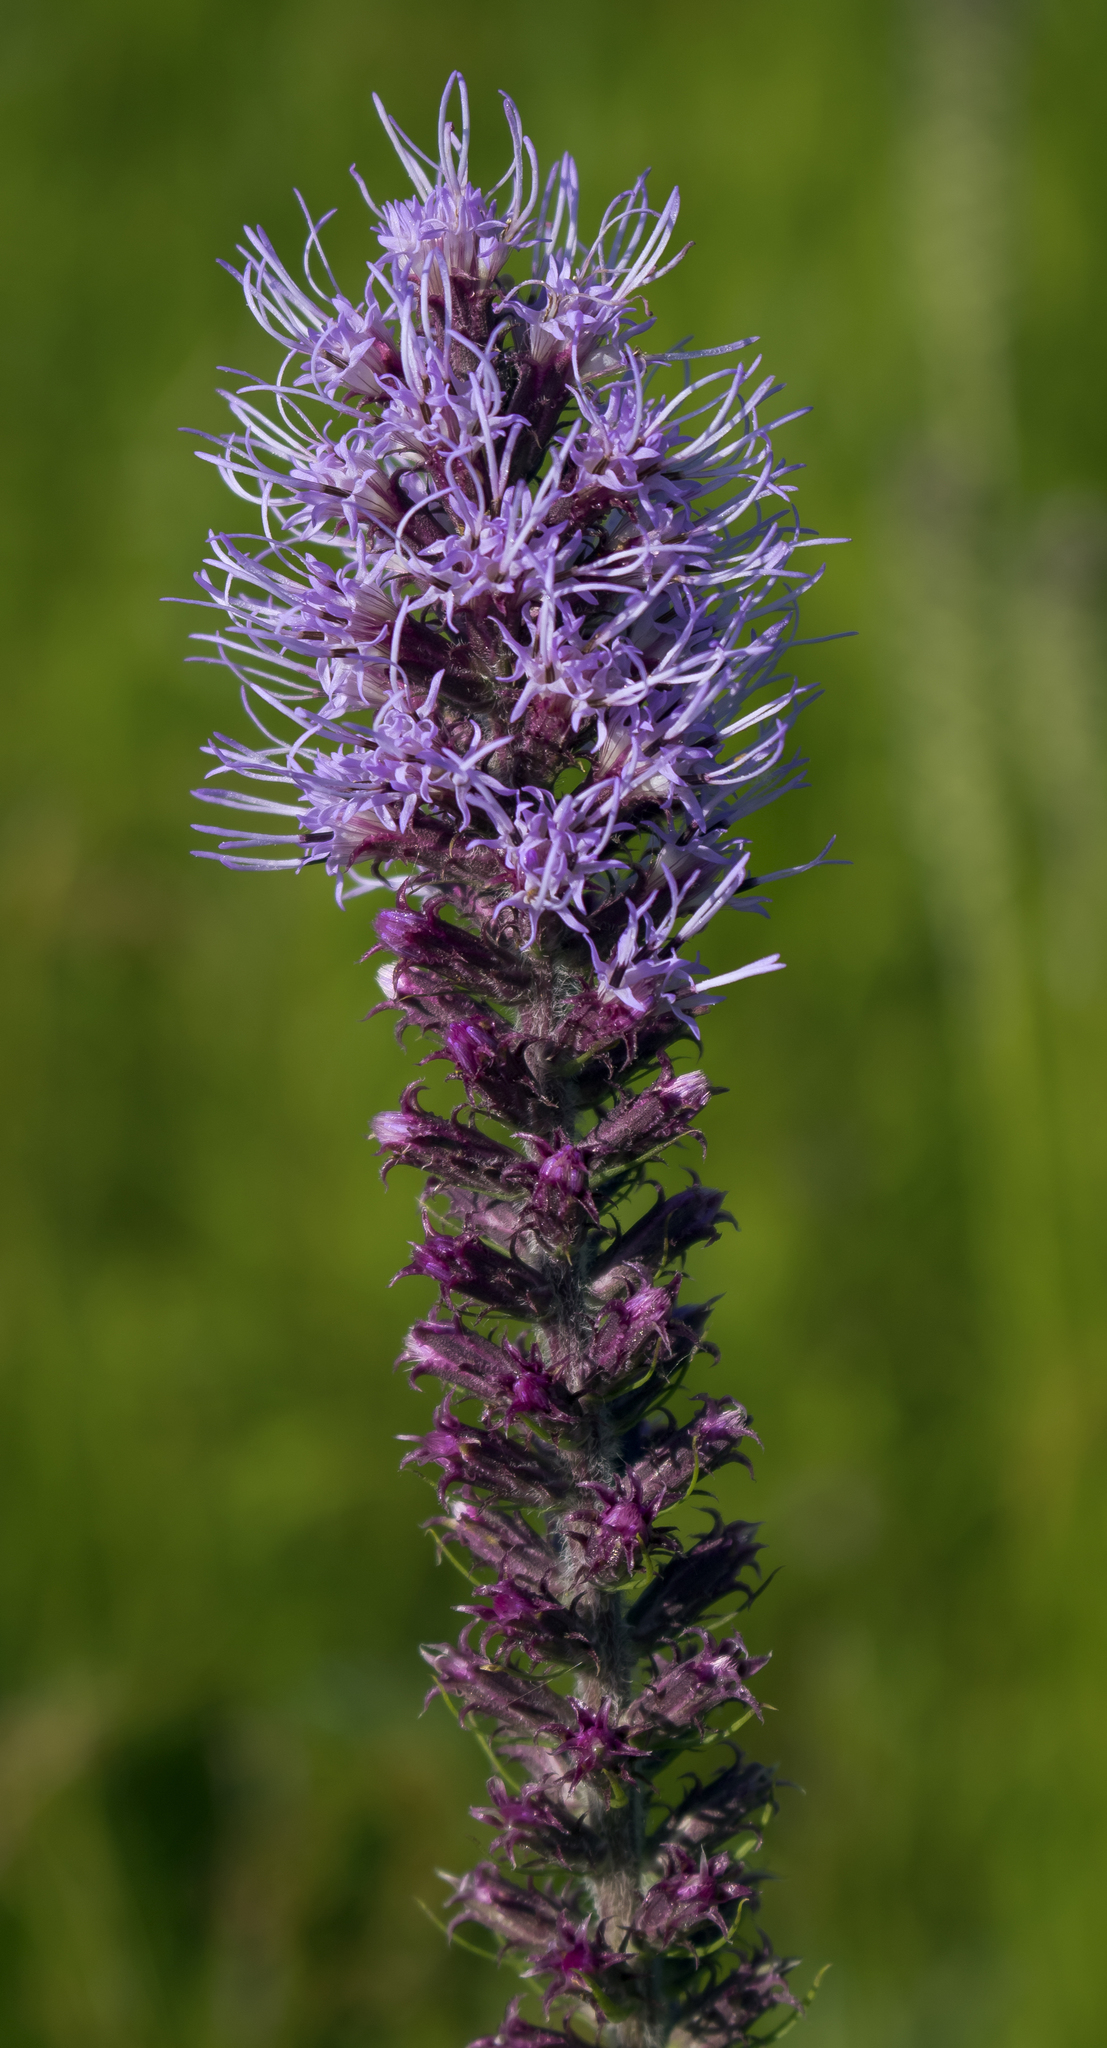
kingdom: Plantae
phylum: Tracheophyta
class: Magnoliopsida
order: Asterales
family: Asteraceae
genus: Liatris
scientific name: Liatris pycnostachya
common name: Cattail gayfeather
